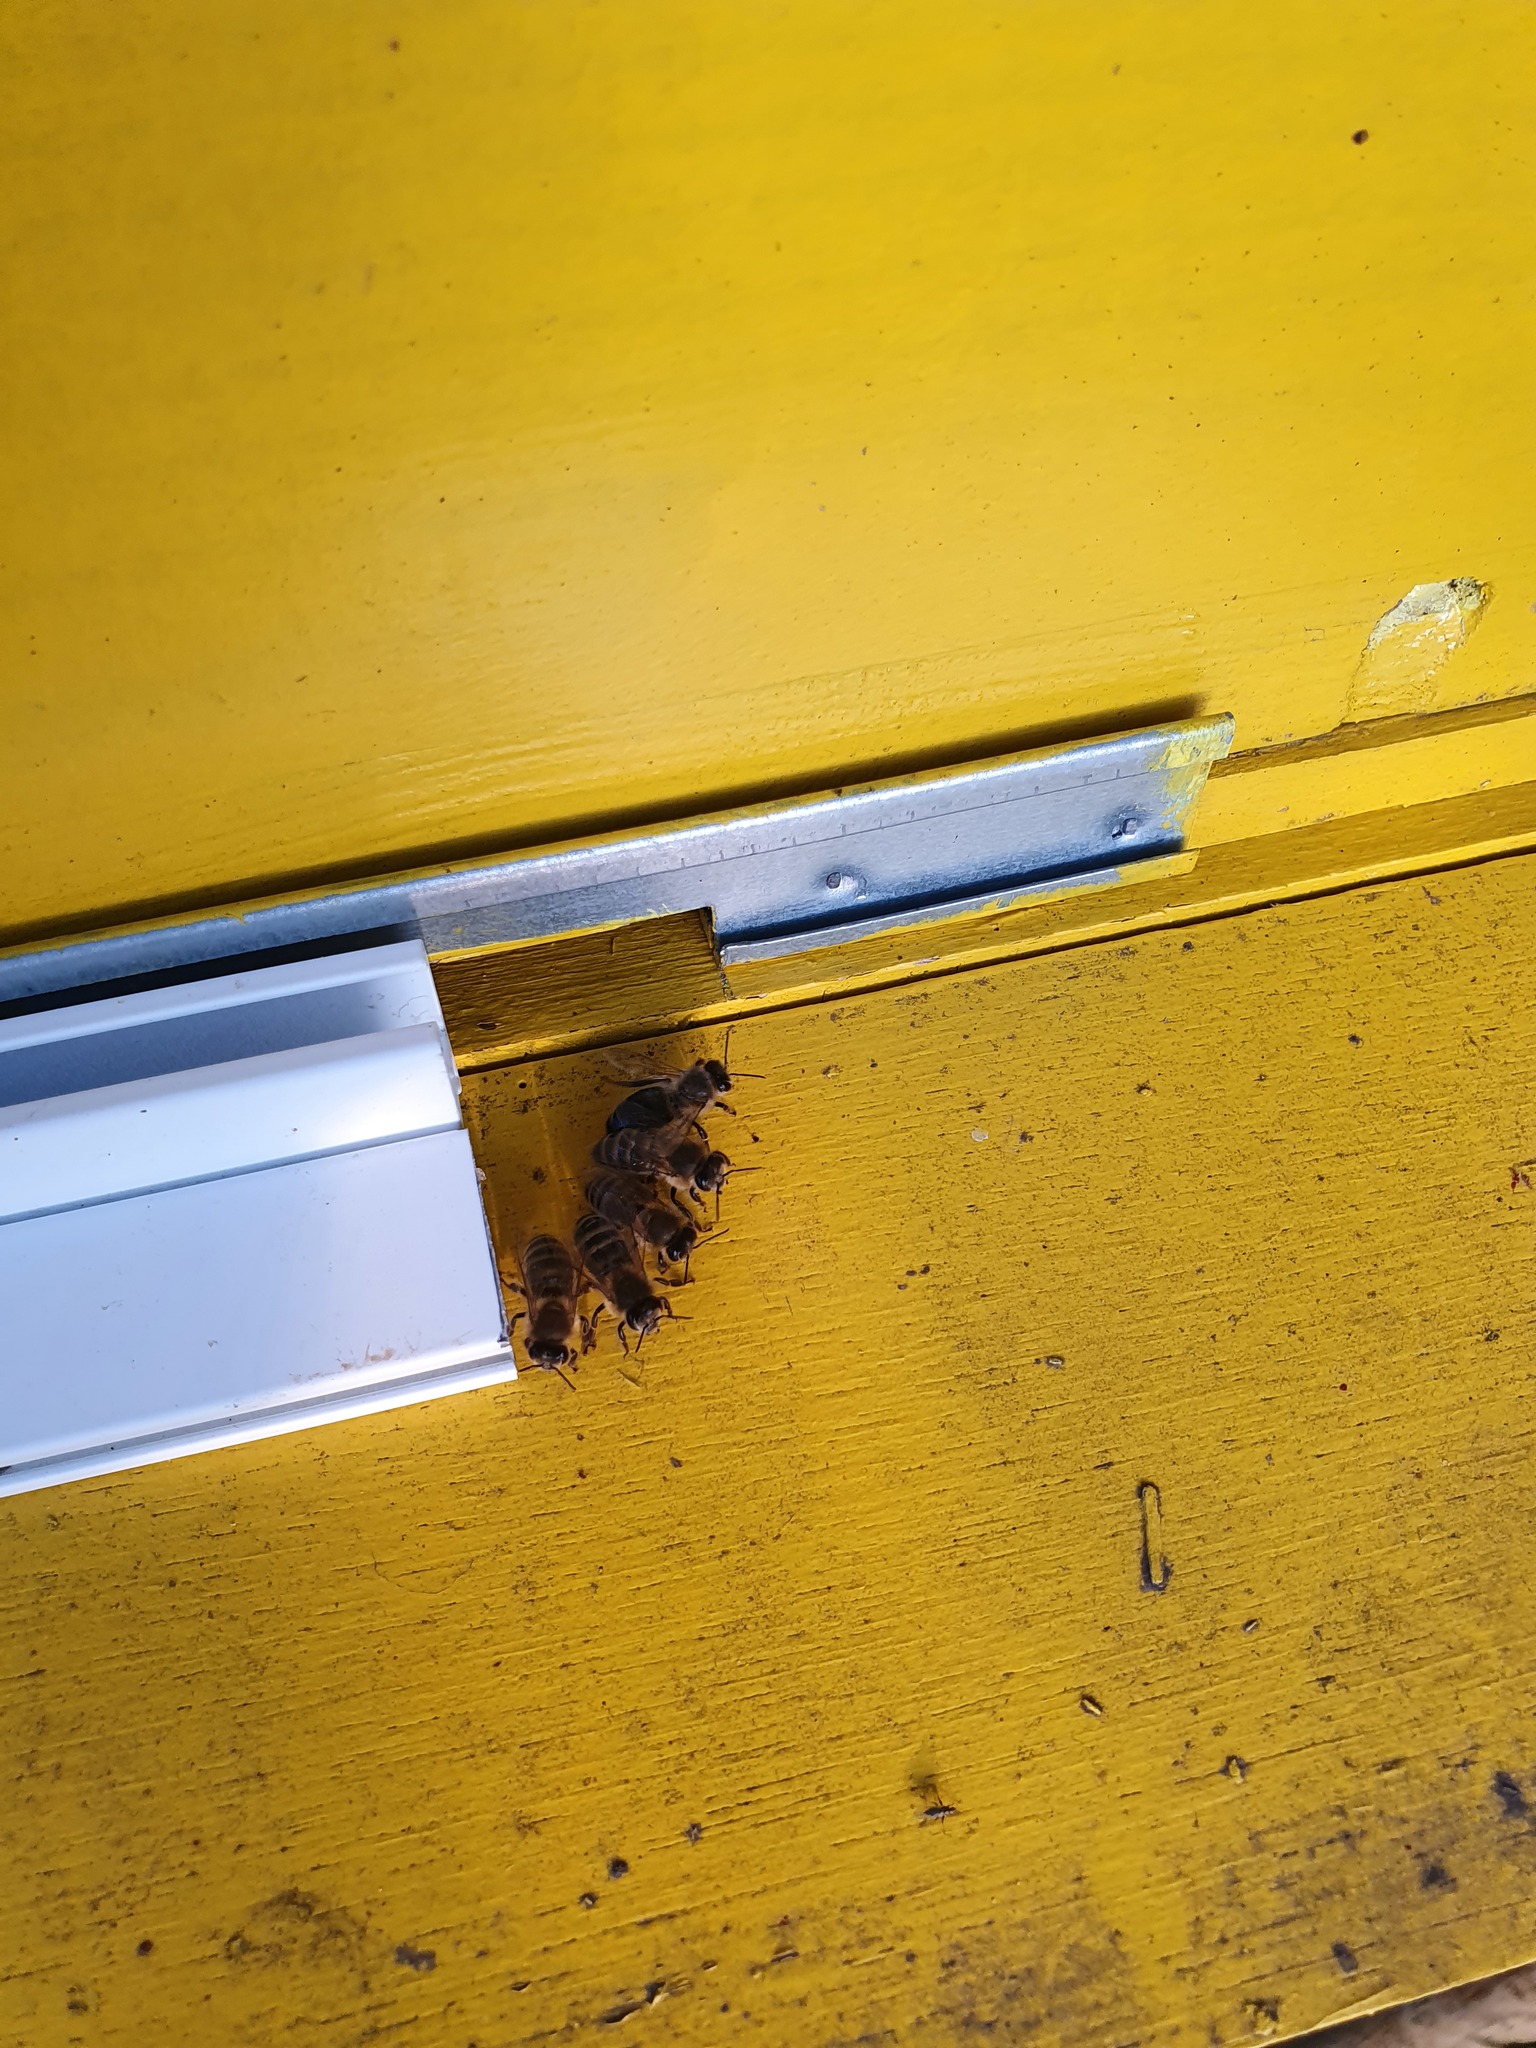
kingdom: Animalia
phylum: Arthropoda
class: Insecta
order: Hymenoptera
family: Apidae
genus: Apis
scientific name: Apis mellifera
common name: Honey bee
